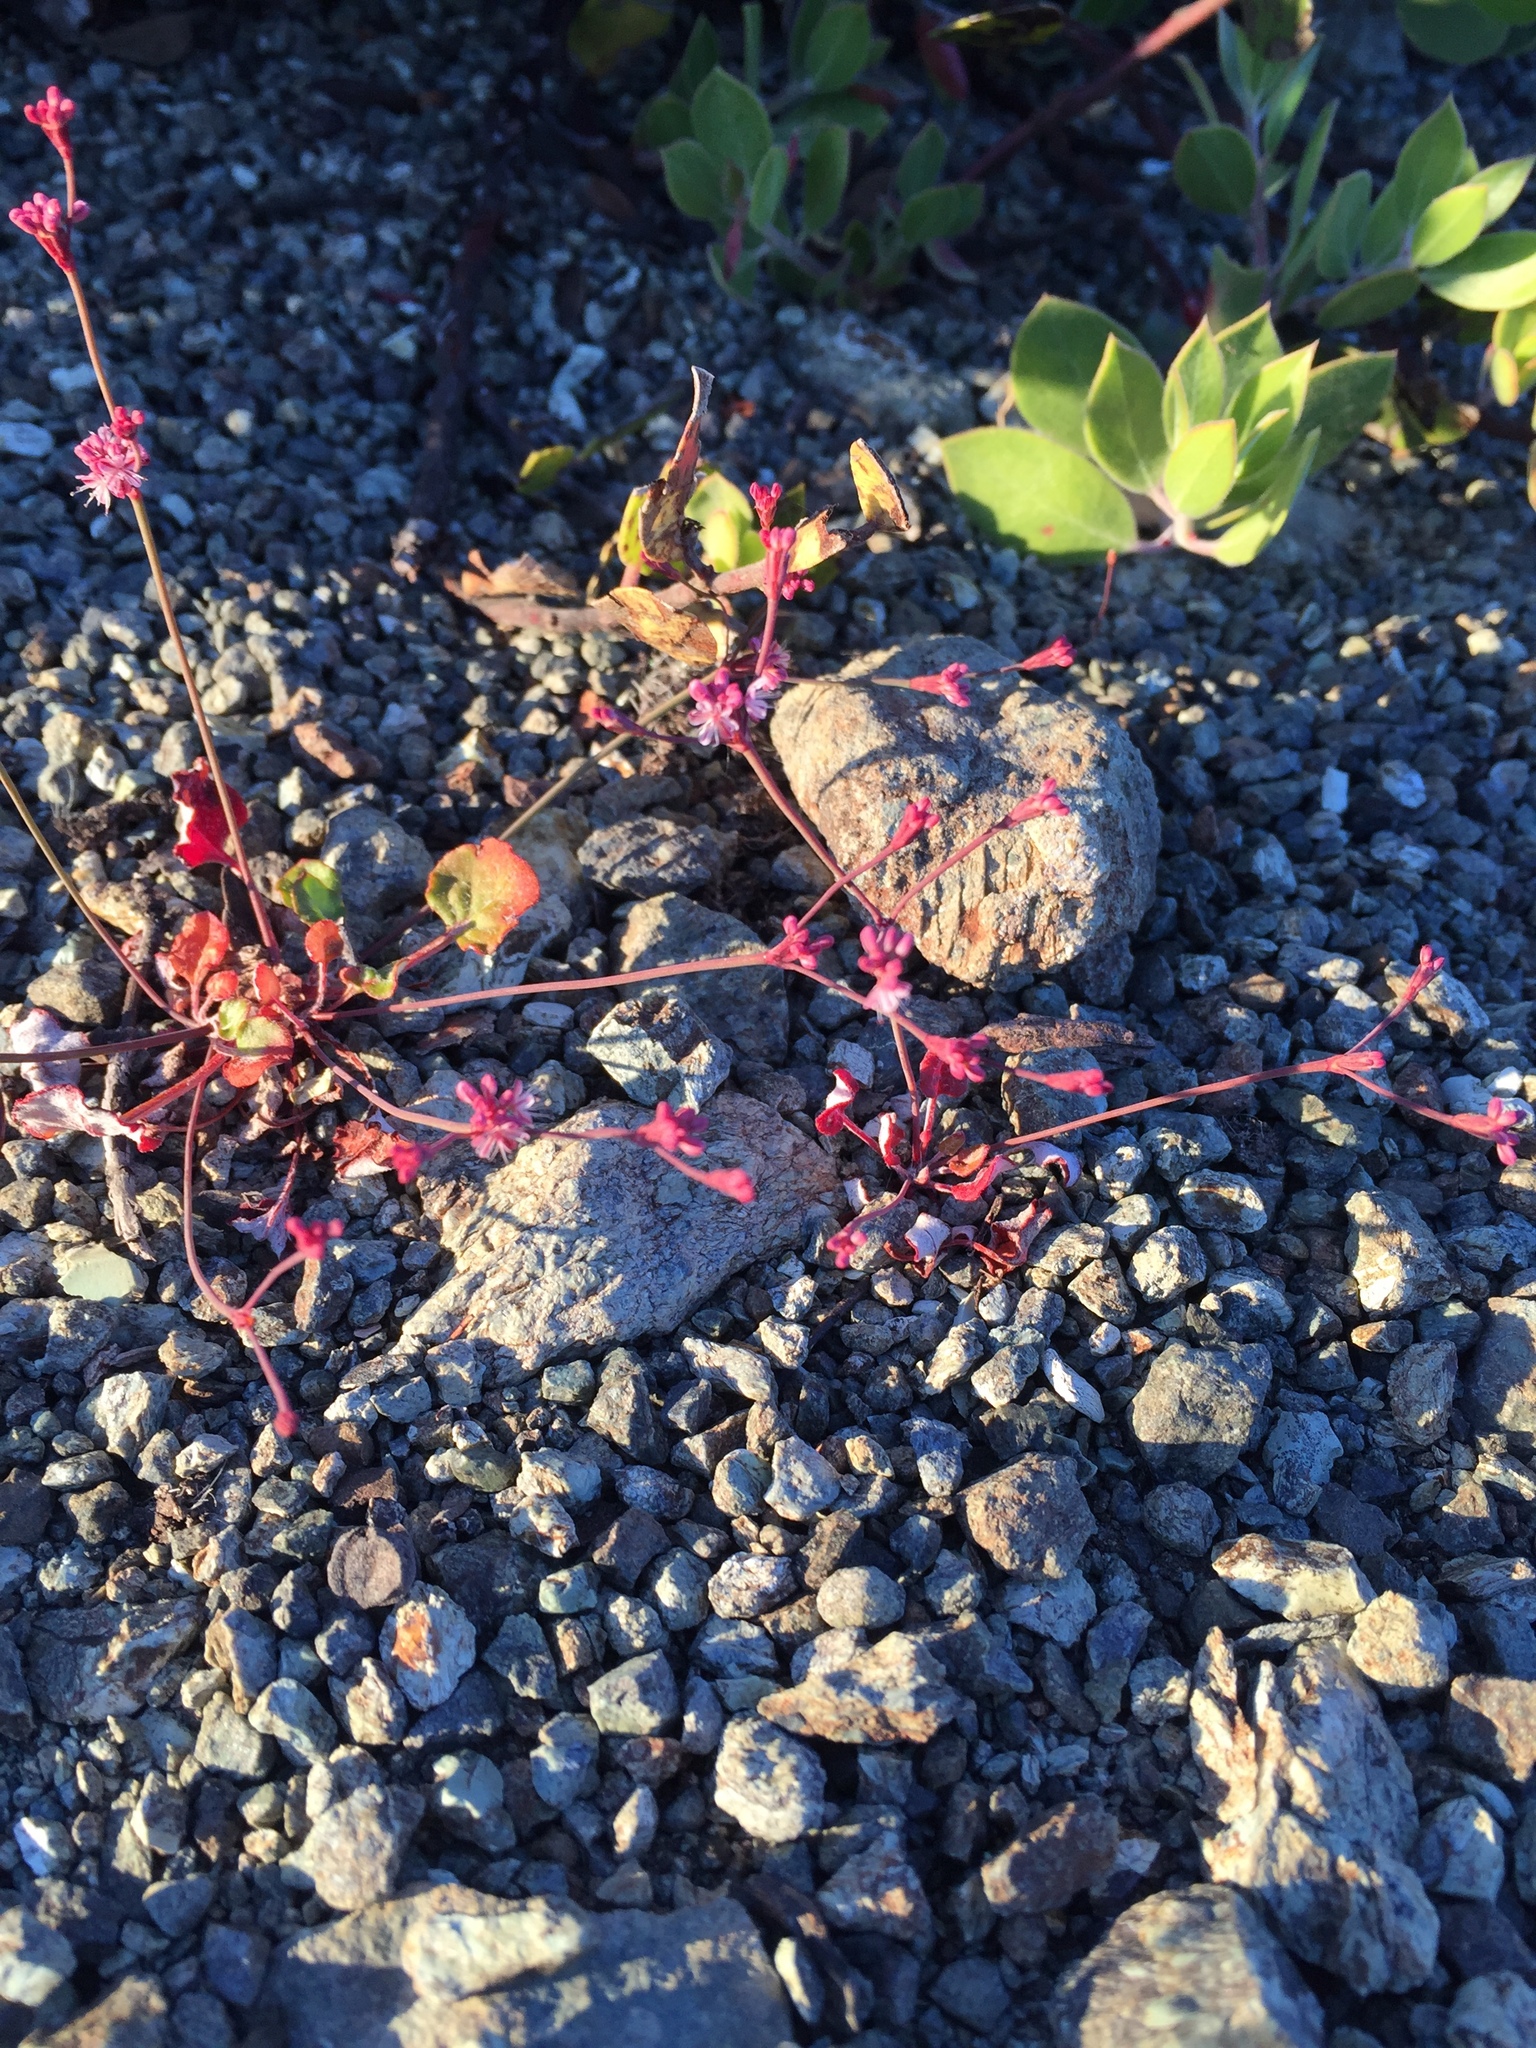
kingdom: Plantae
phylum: Tracheophyta
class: Magnoliopsida
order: Caryophyllales
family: Polygonaceae
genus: Eriogonum
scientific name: Eriogonum luteolum
